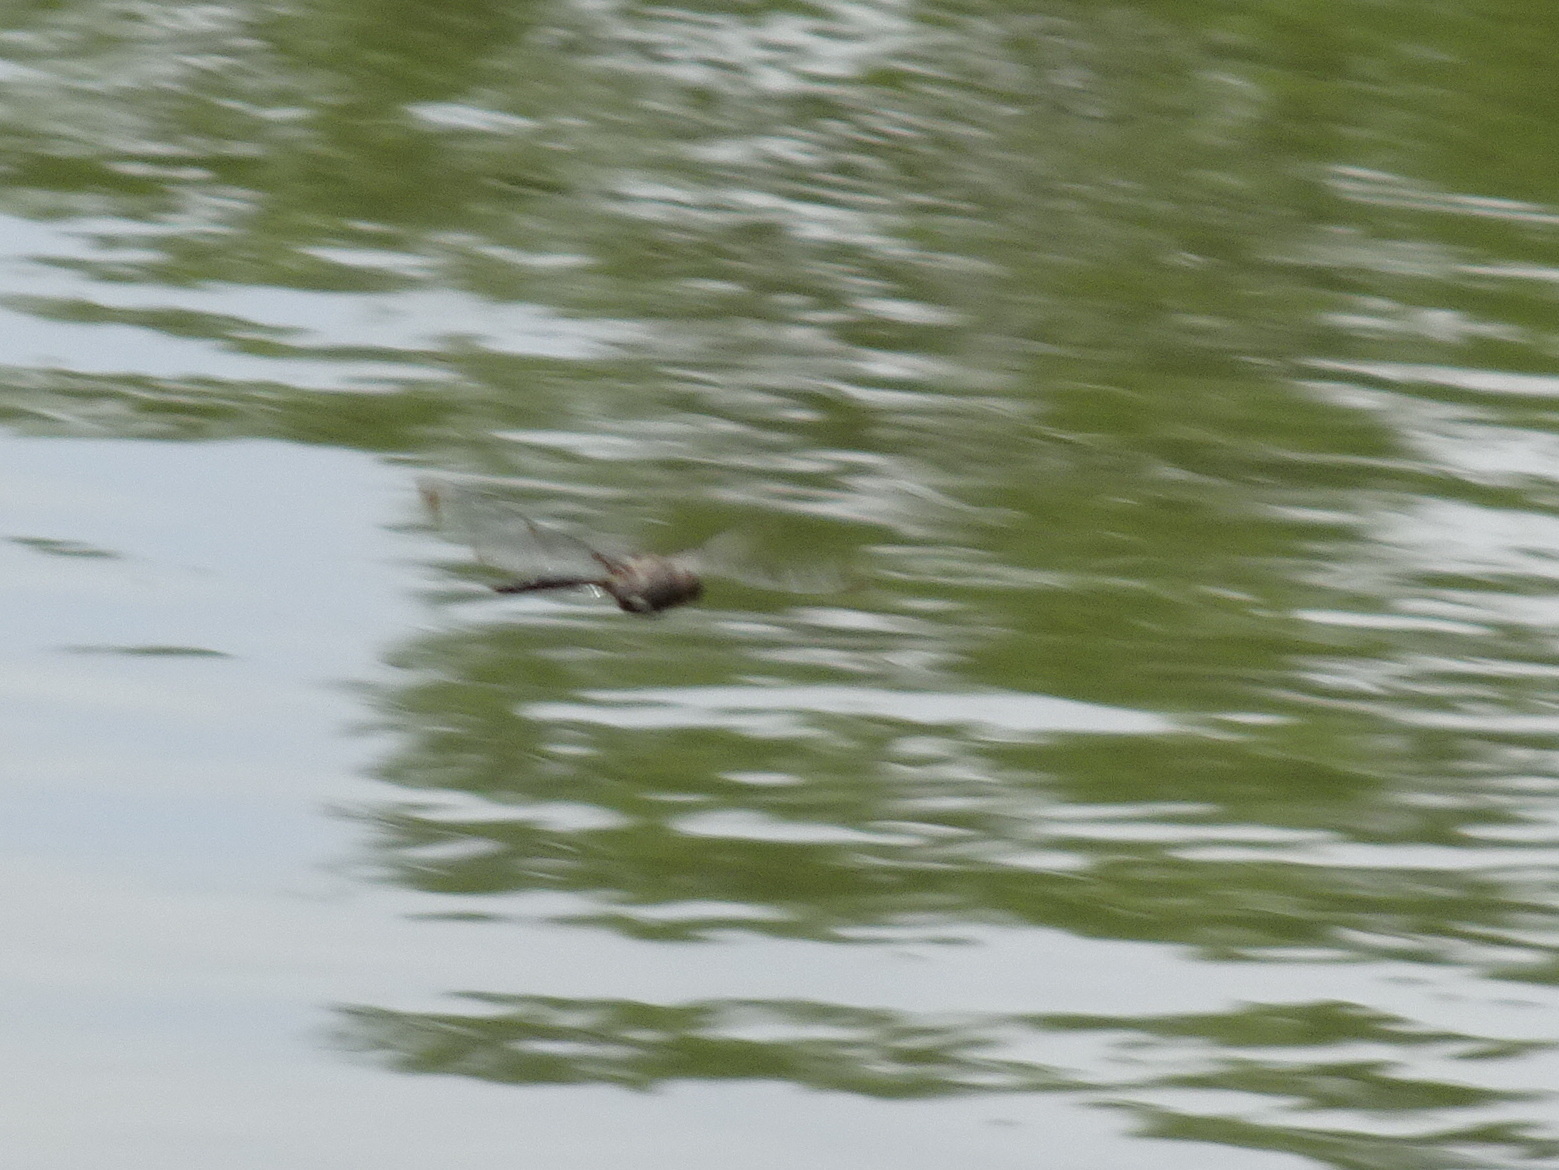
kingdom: Animalia
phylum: Arthropoda
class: Insecta
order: Odonata
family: Corduliidae
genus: Epitheca
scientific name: Epitheca princeps
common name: Prince baskettail
